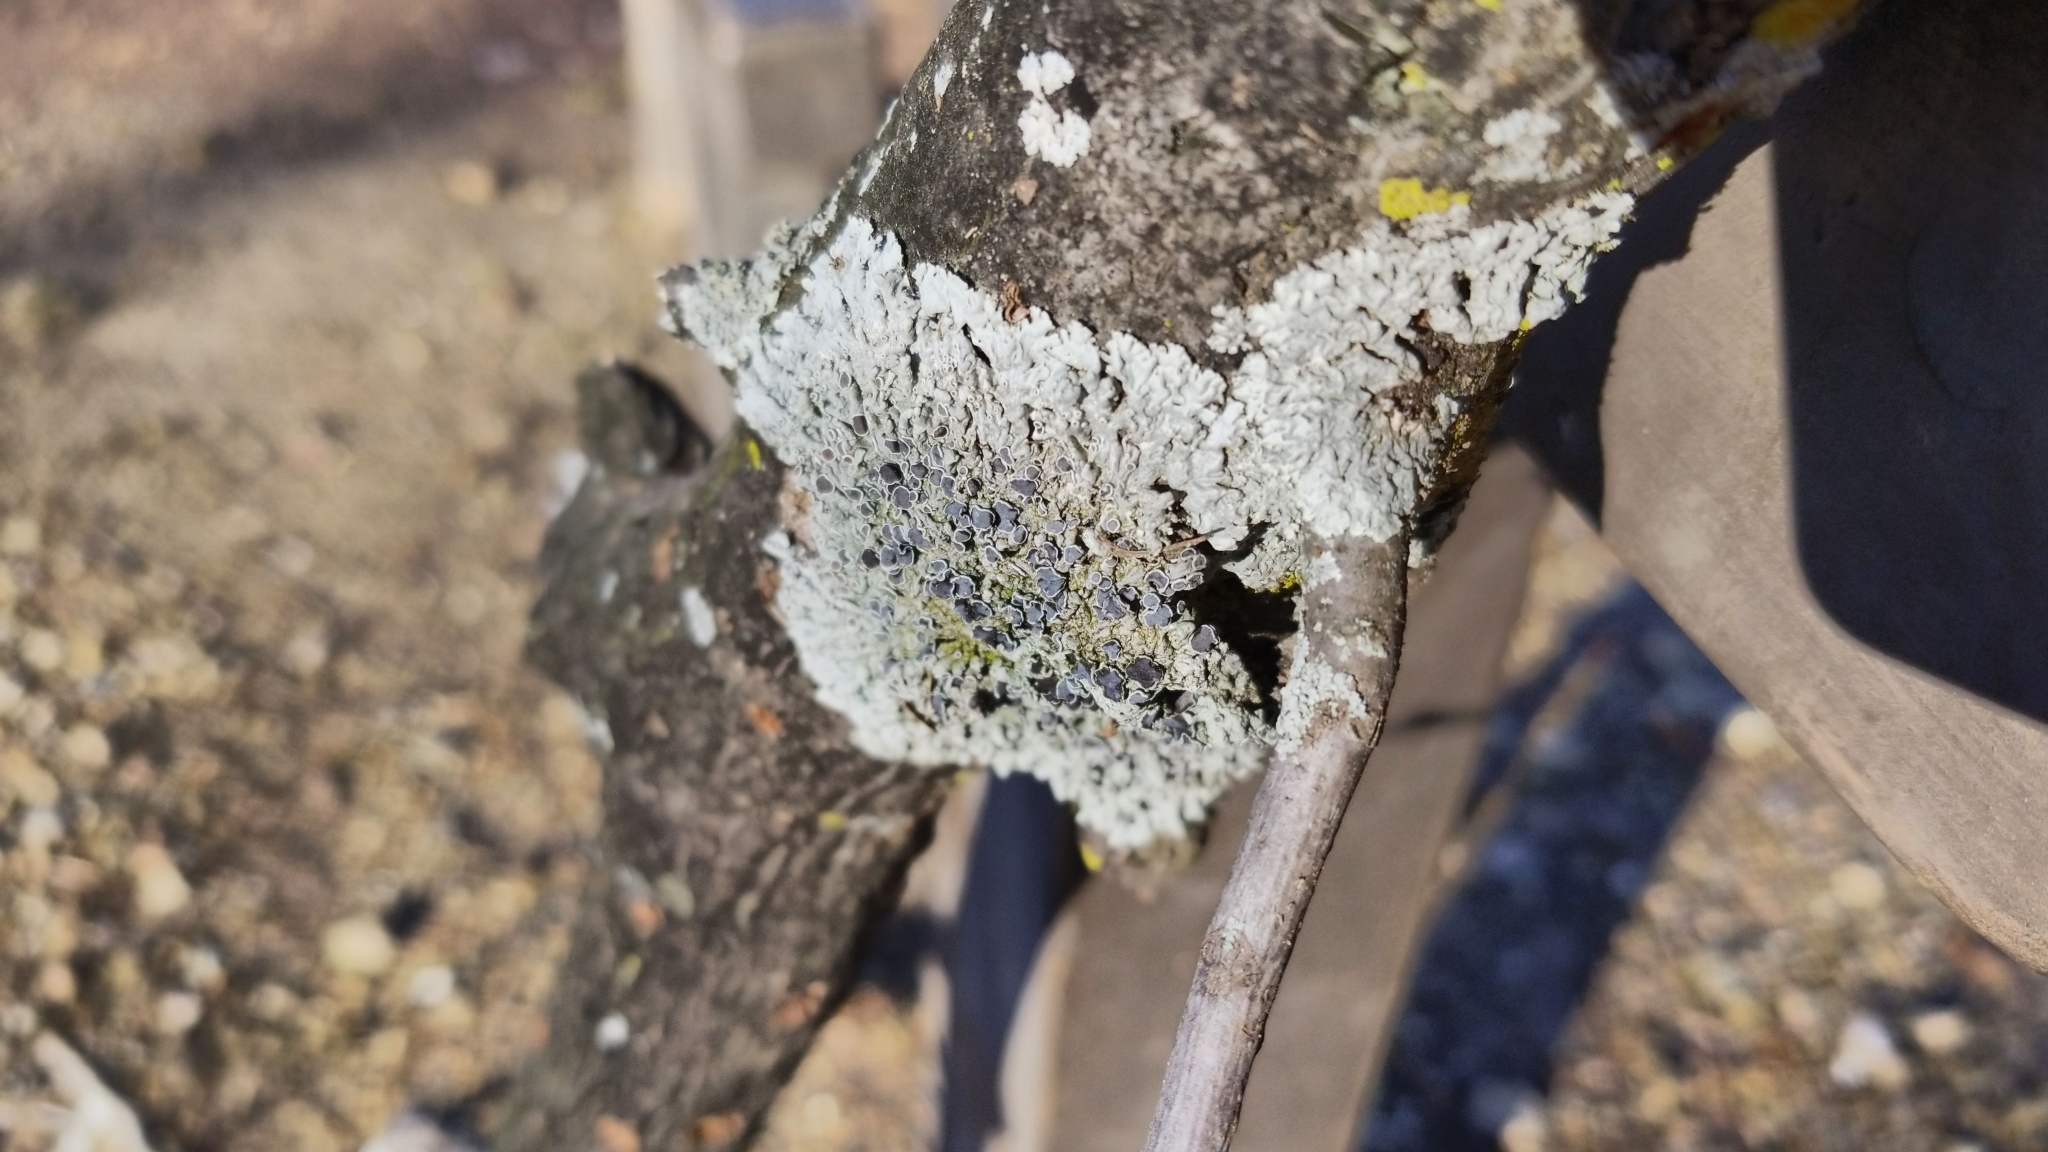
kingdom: Fungi
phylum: Ascomycota
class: Lecanoromycetes
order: Caliciales
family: Physciaceae
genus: Physcia
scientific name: Physcia stellaris
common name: Star rosette lichen
